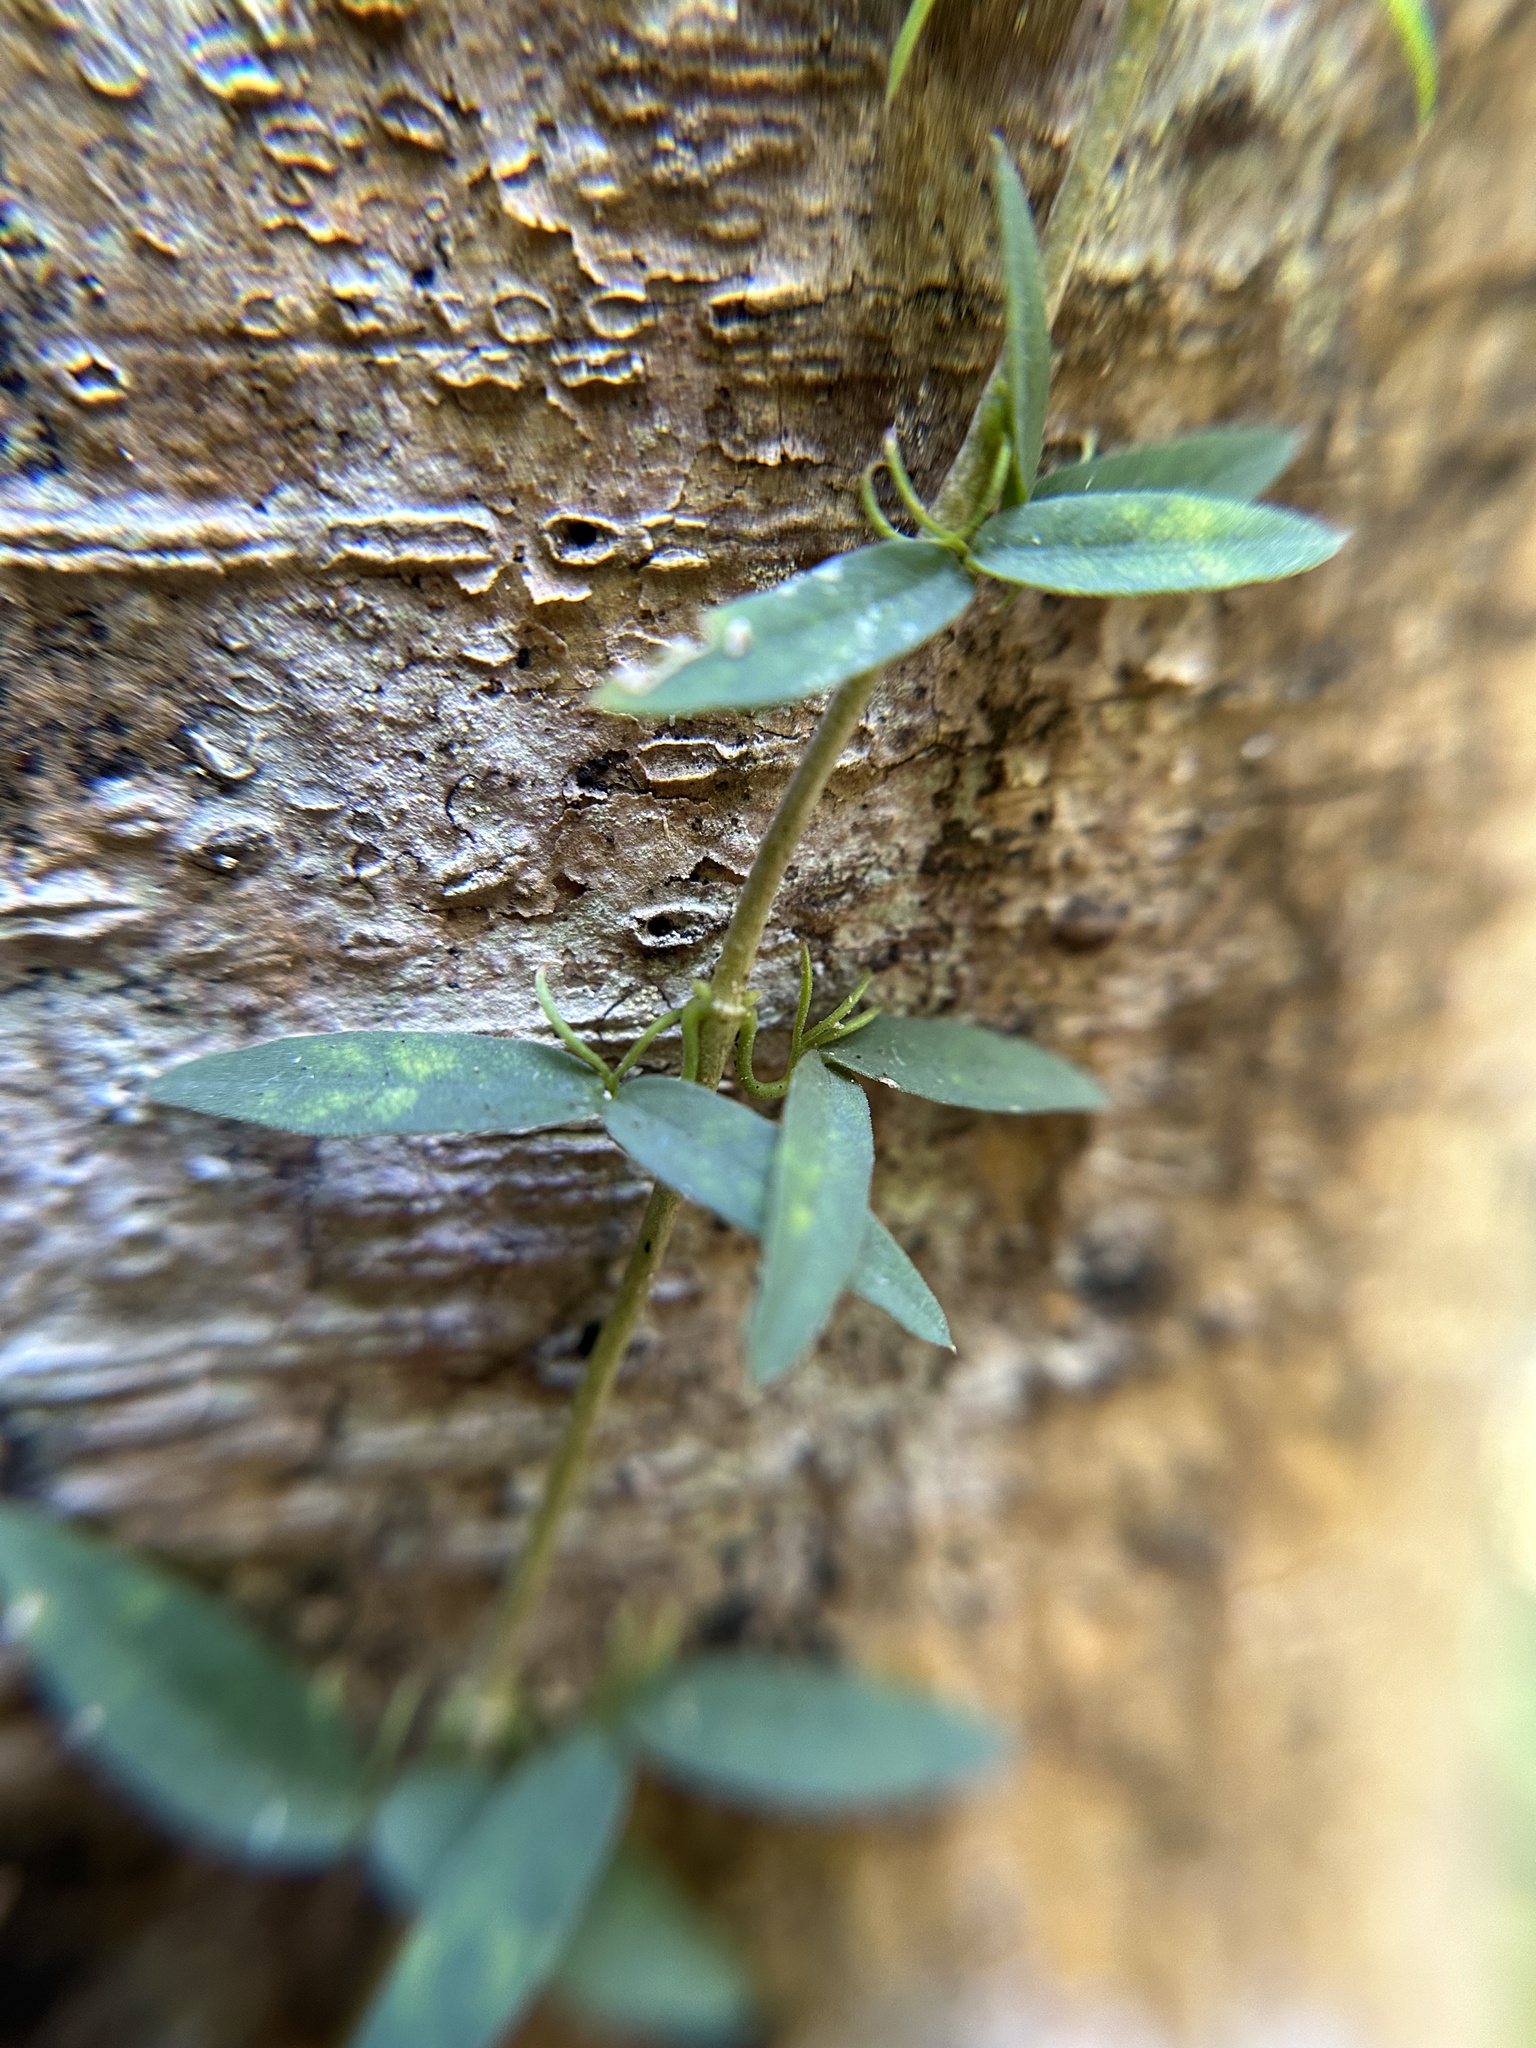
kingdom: Plantae
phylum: Tracheophyta
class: Magnoliopsida
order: Lamiales
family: Bignoniaceae
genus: Dolichandra
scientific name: Dolichandra unguis-cati
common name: Catclaw vine
